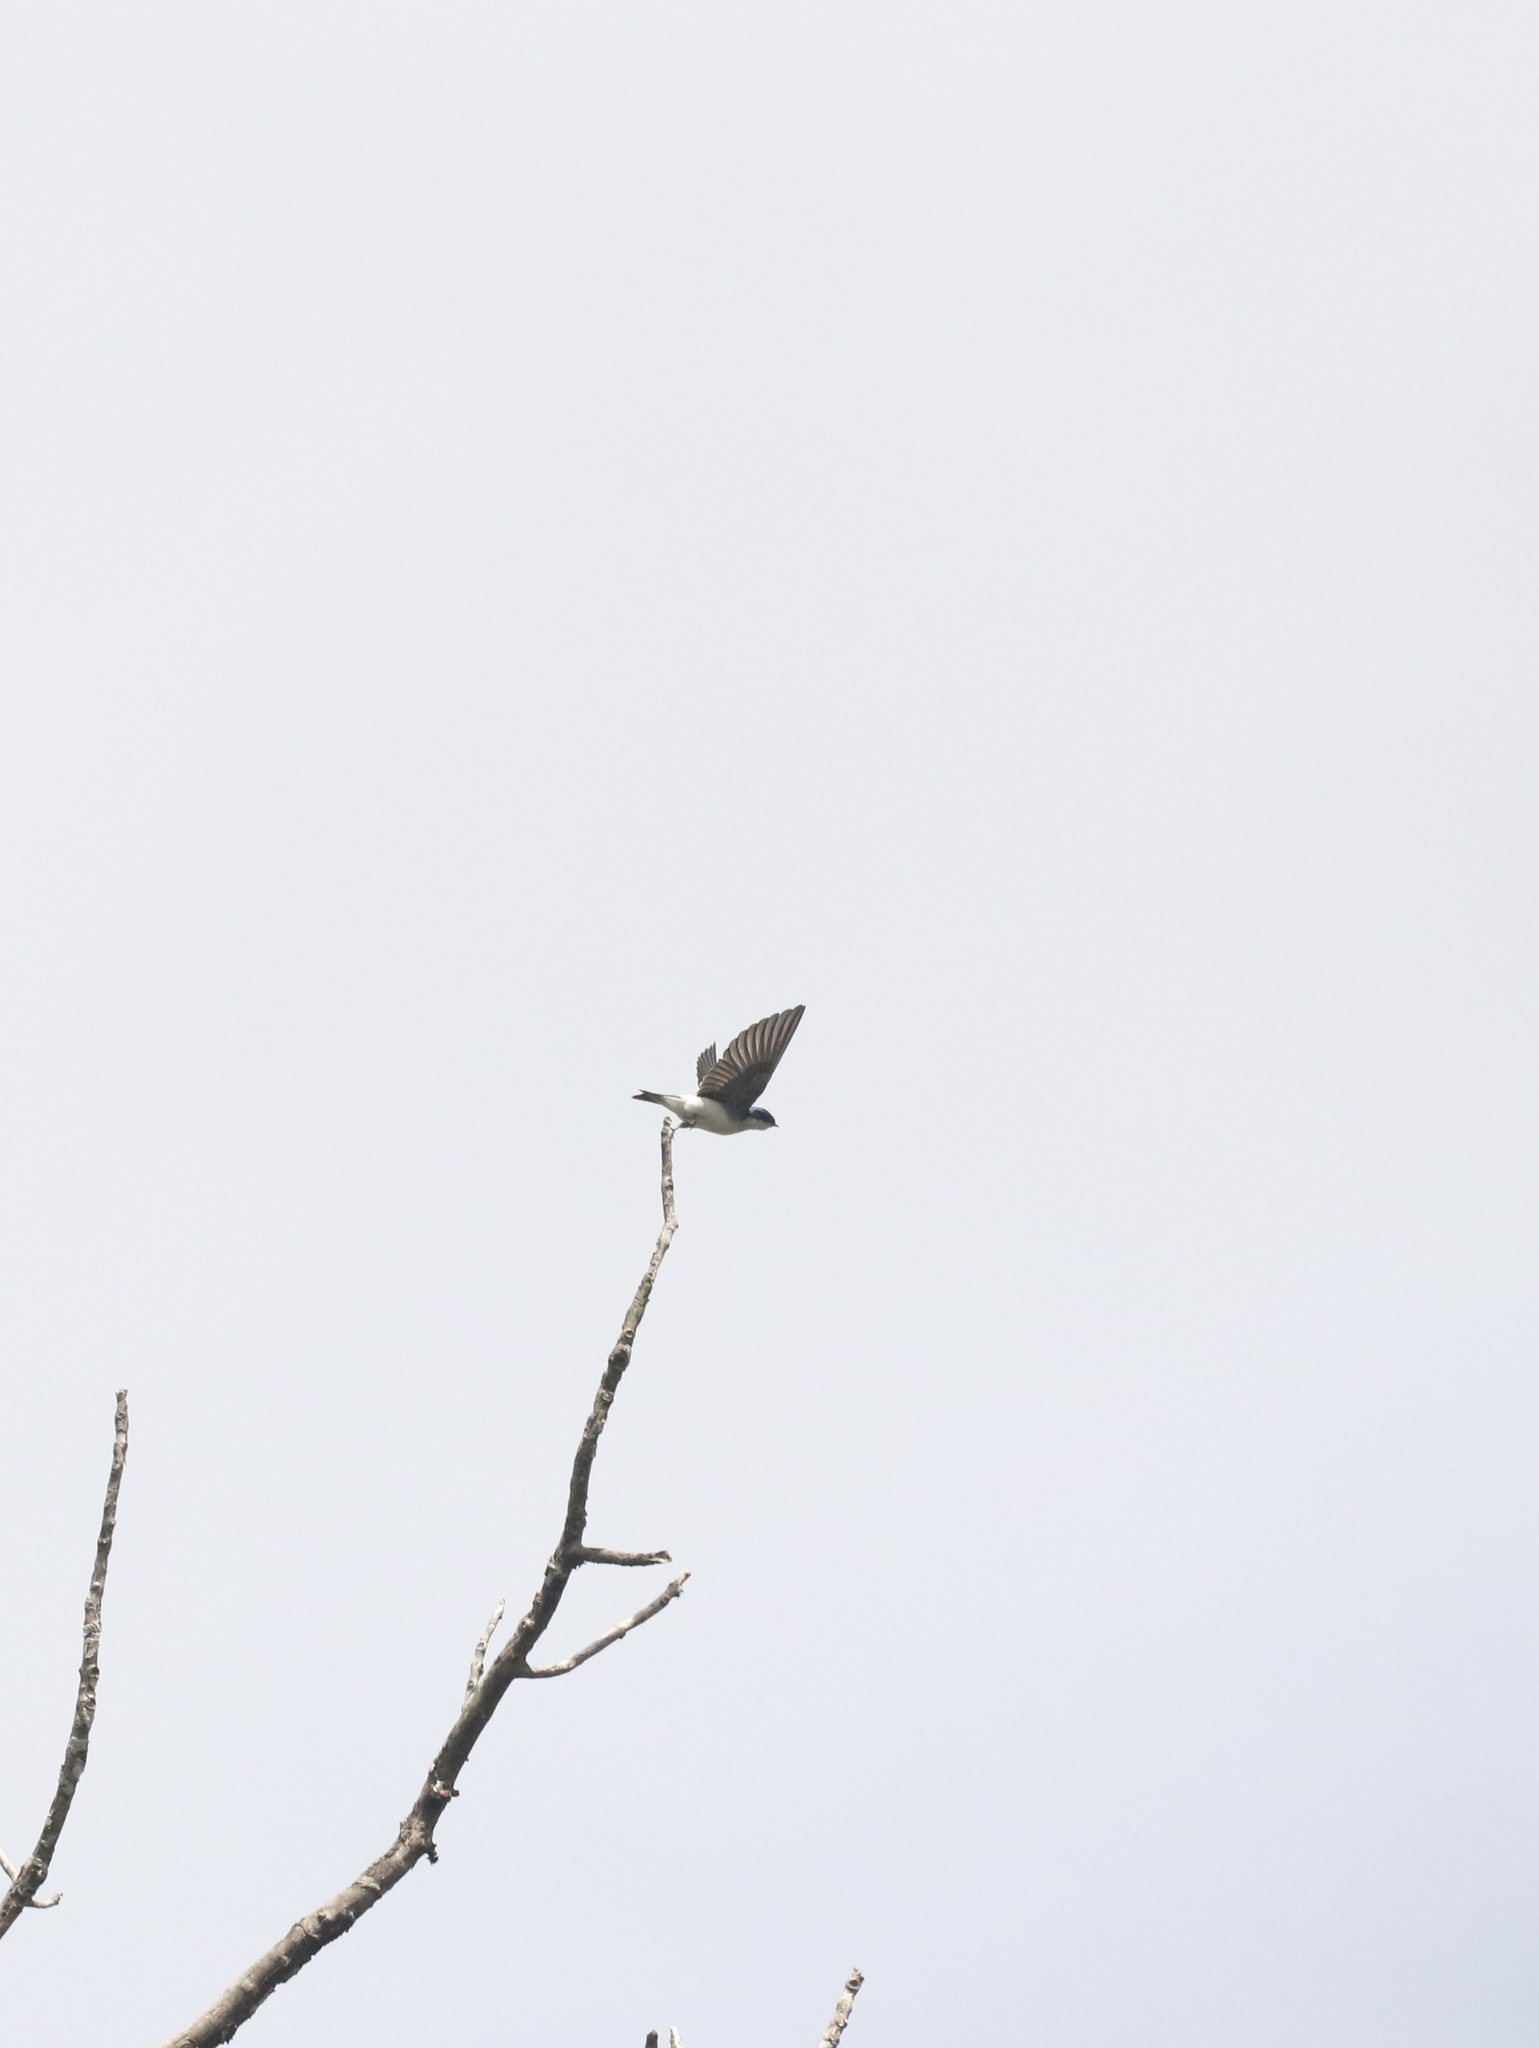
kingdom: Animalia
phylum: Chordata
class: Aves
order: Passeriformes
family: Hirundinidae
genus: Tachycineta
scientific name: Tachycineta leucopyga
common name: Chilean swallow
